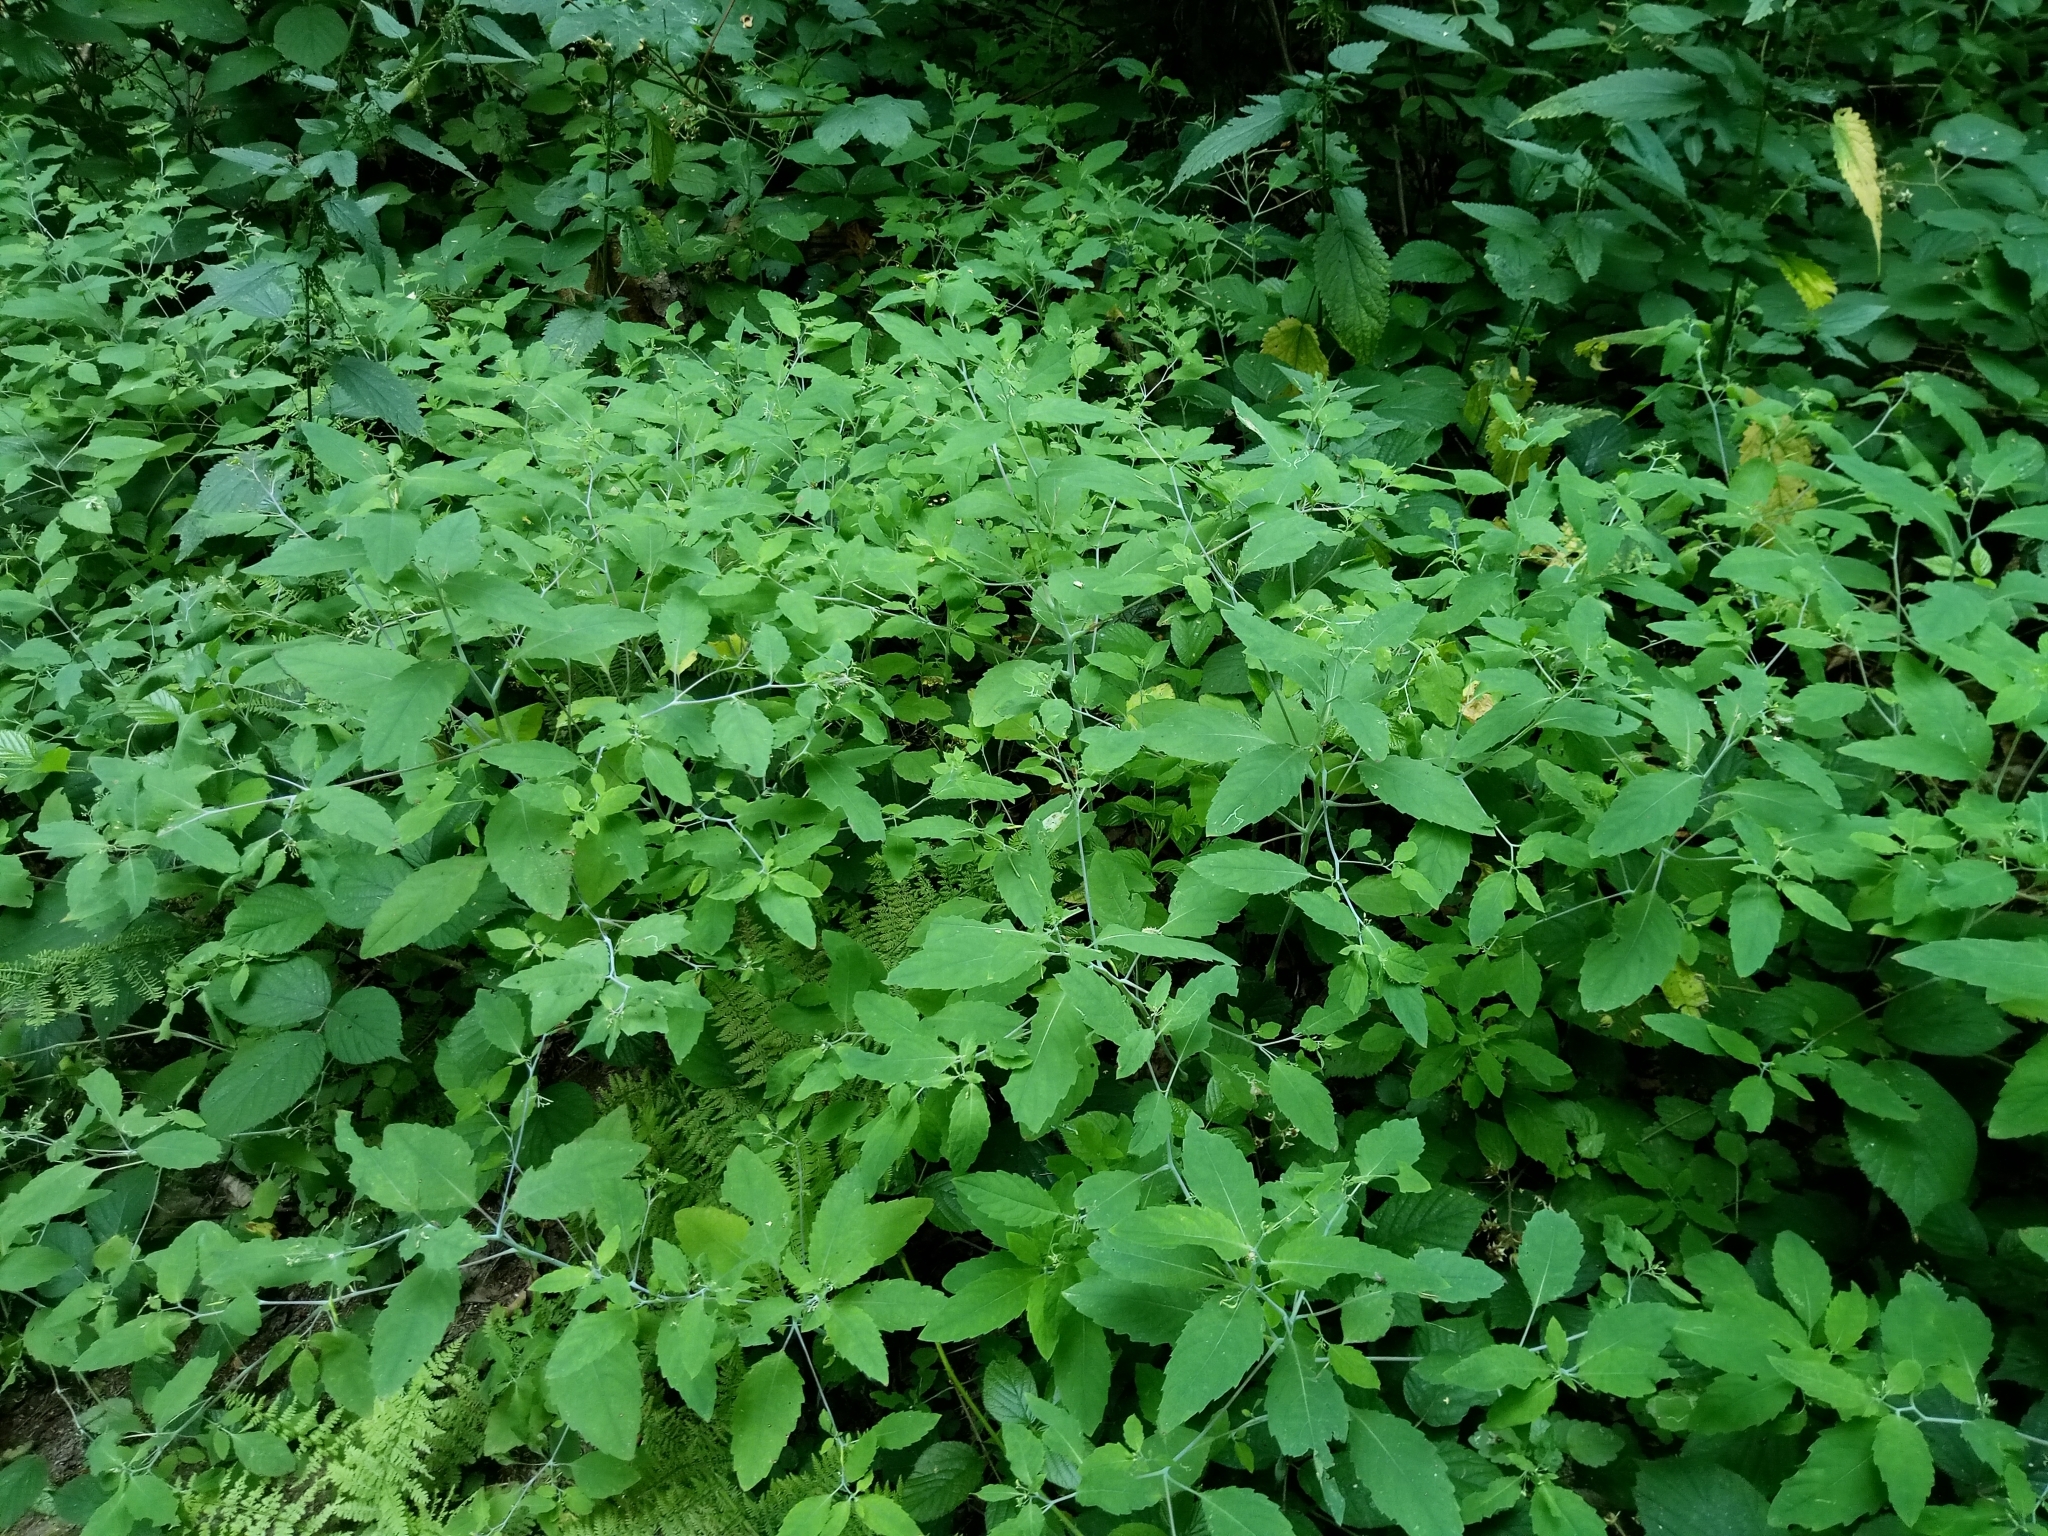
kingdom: Plantae
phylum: Tracheophyta
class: Magnoliopsida
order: Ericales
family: Balsaminaceae
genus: Impatiens
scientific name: Impatiens noli-tangere
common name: Touch-me-not balsam
